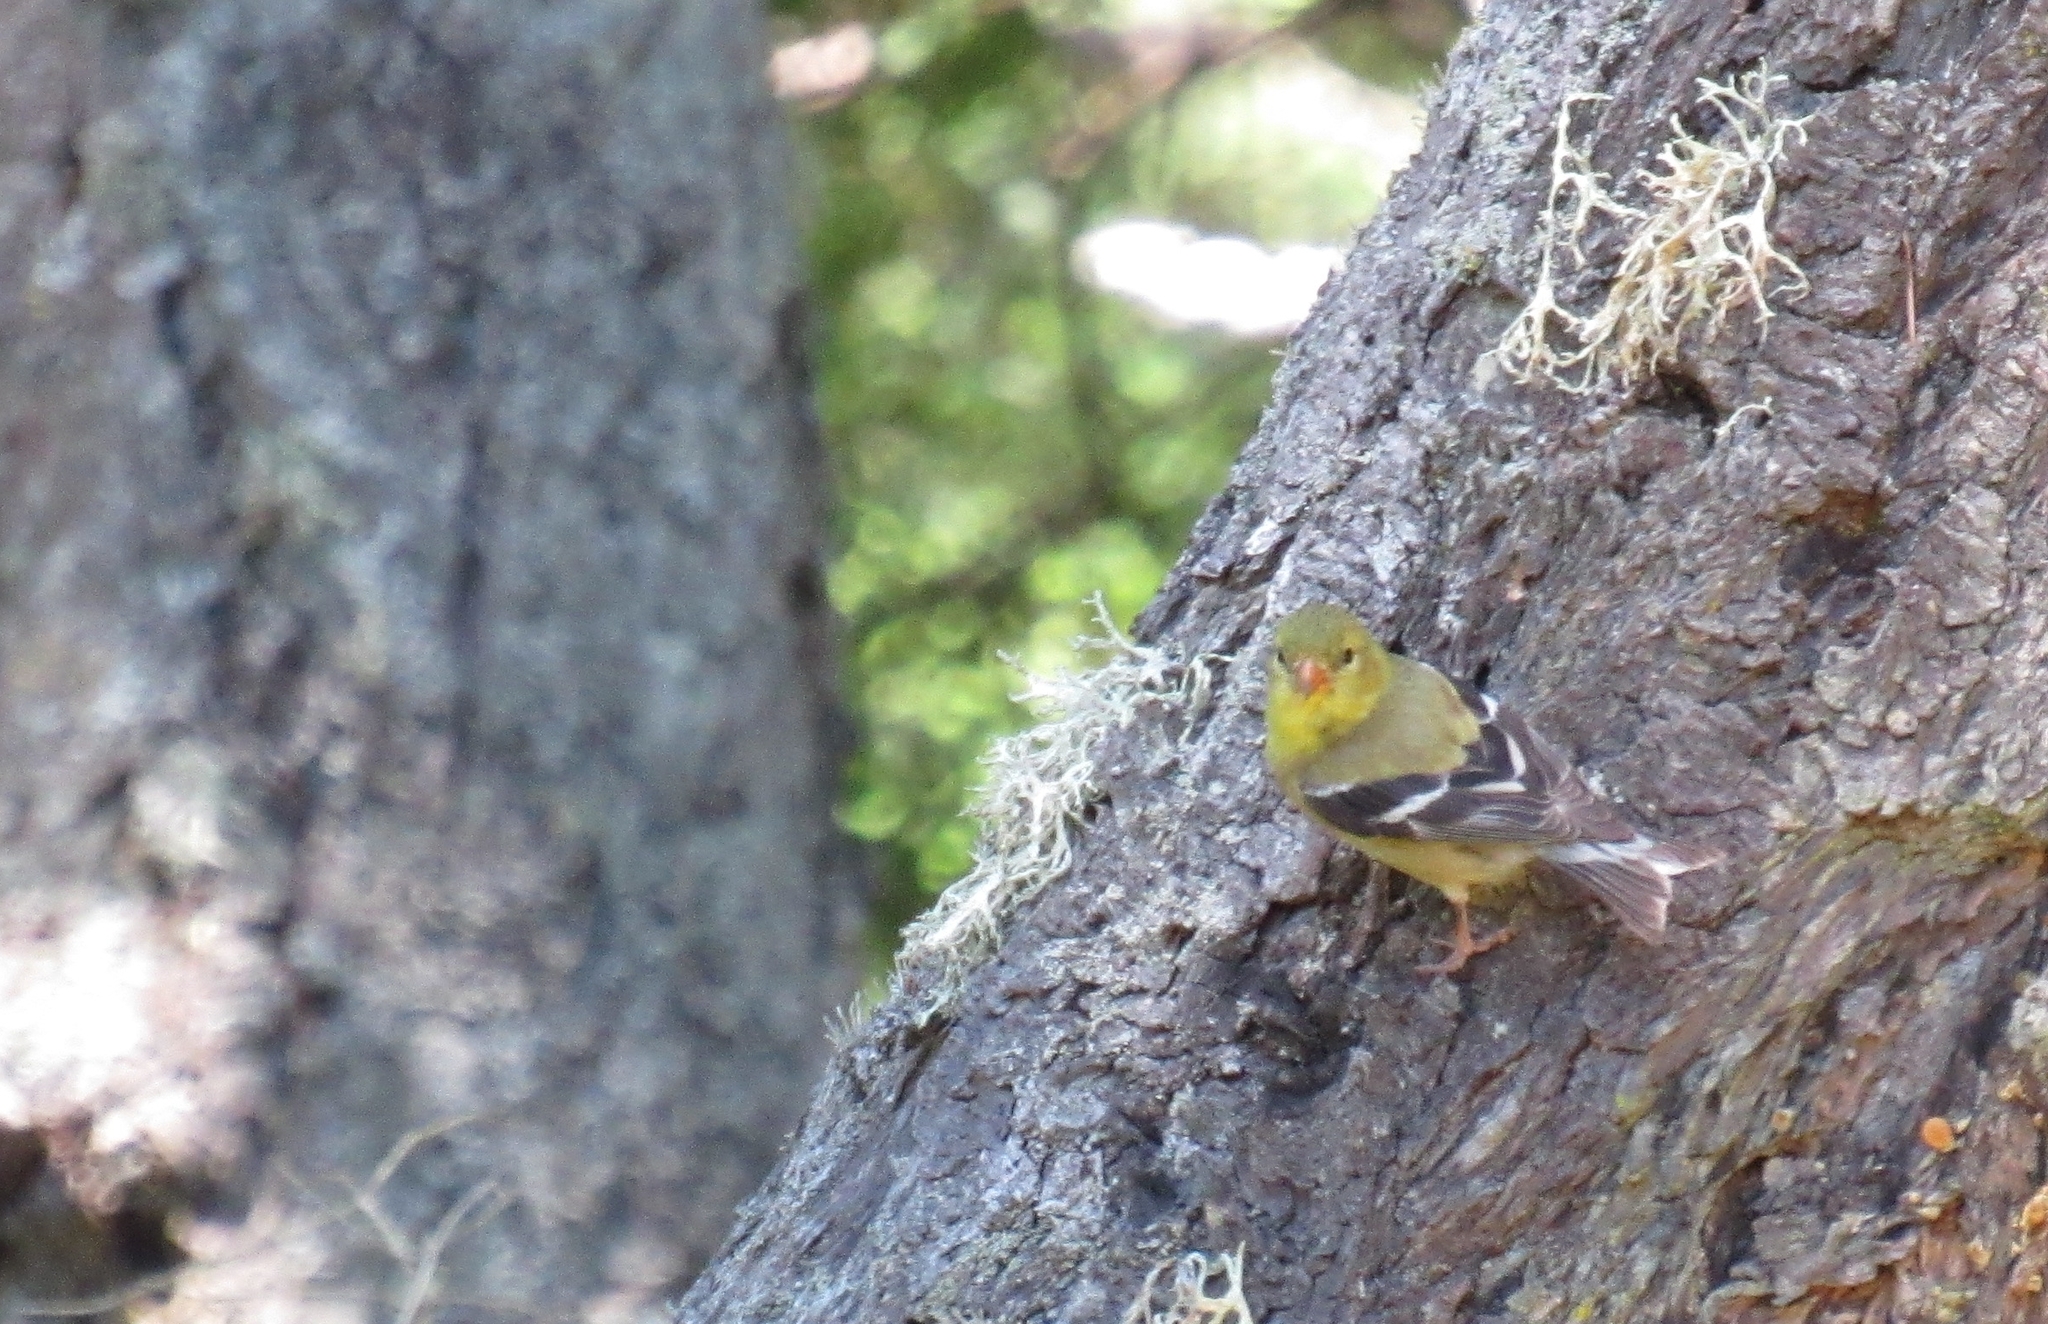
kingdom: Animalia
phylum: Chordata
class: Aves
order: Passeriformes
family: Fringillidae
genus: Spinus
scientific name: Spinus tristis
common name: American goldfinch
